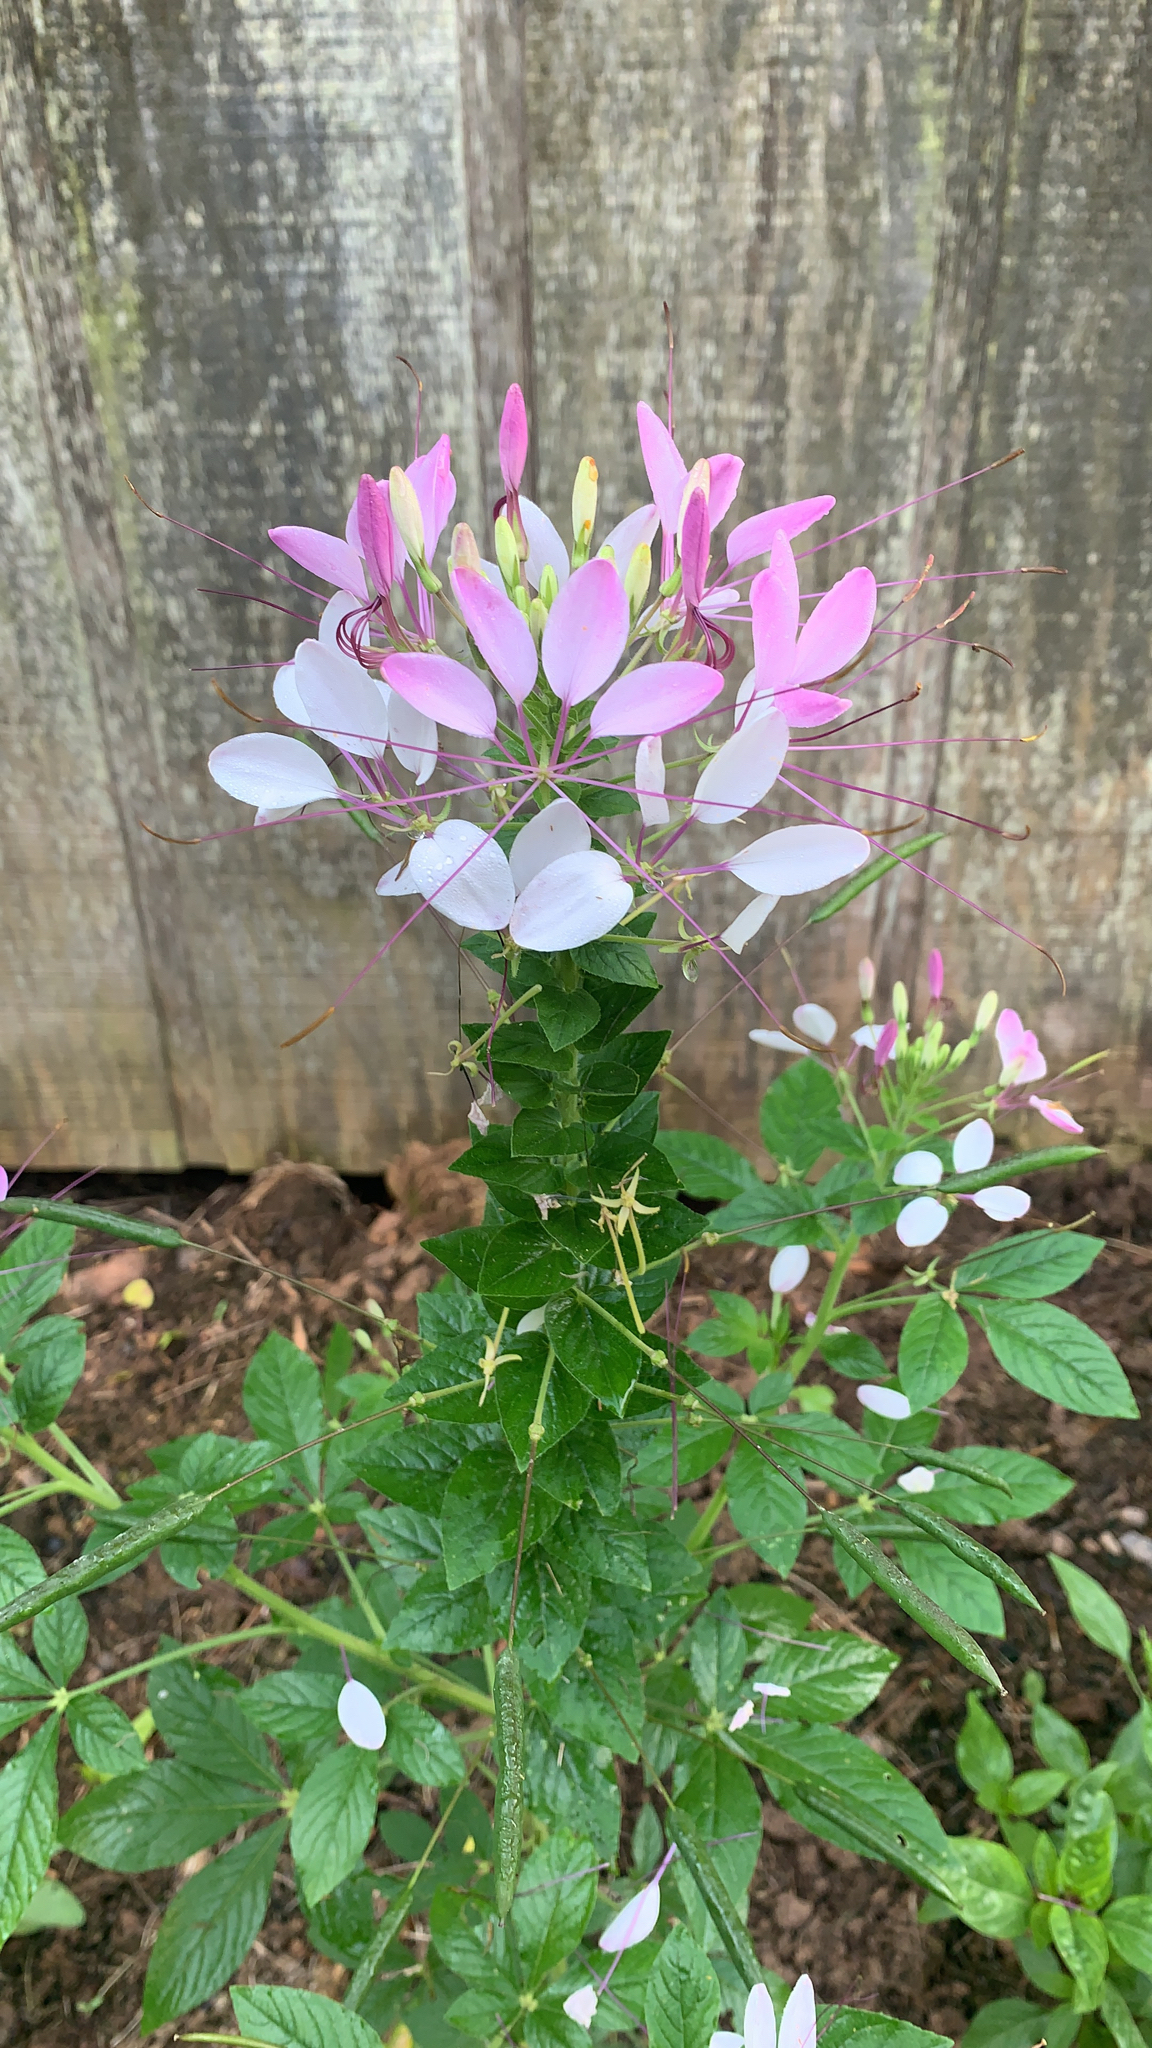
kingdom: Plantae
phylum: Tracheophyta
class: Magnoliopsida
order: Brassicales
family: Cleomaceae
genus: Tarenaya
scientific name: Tarenaya houtteana
